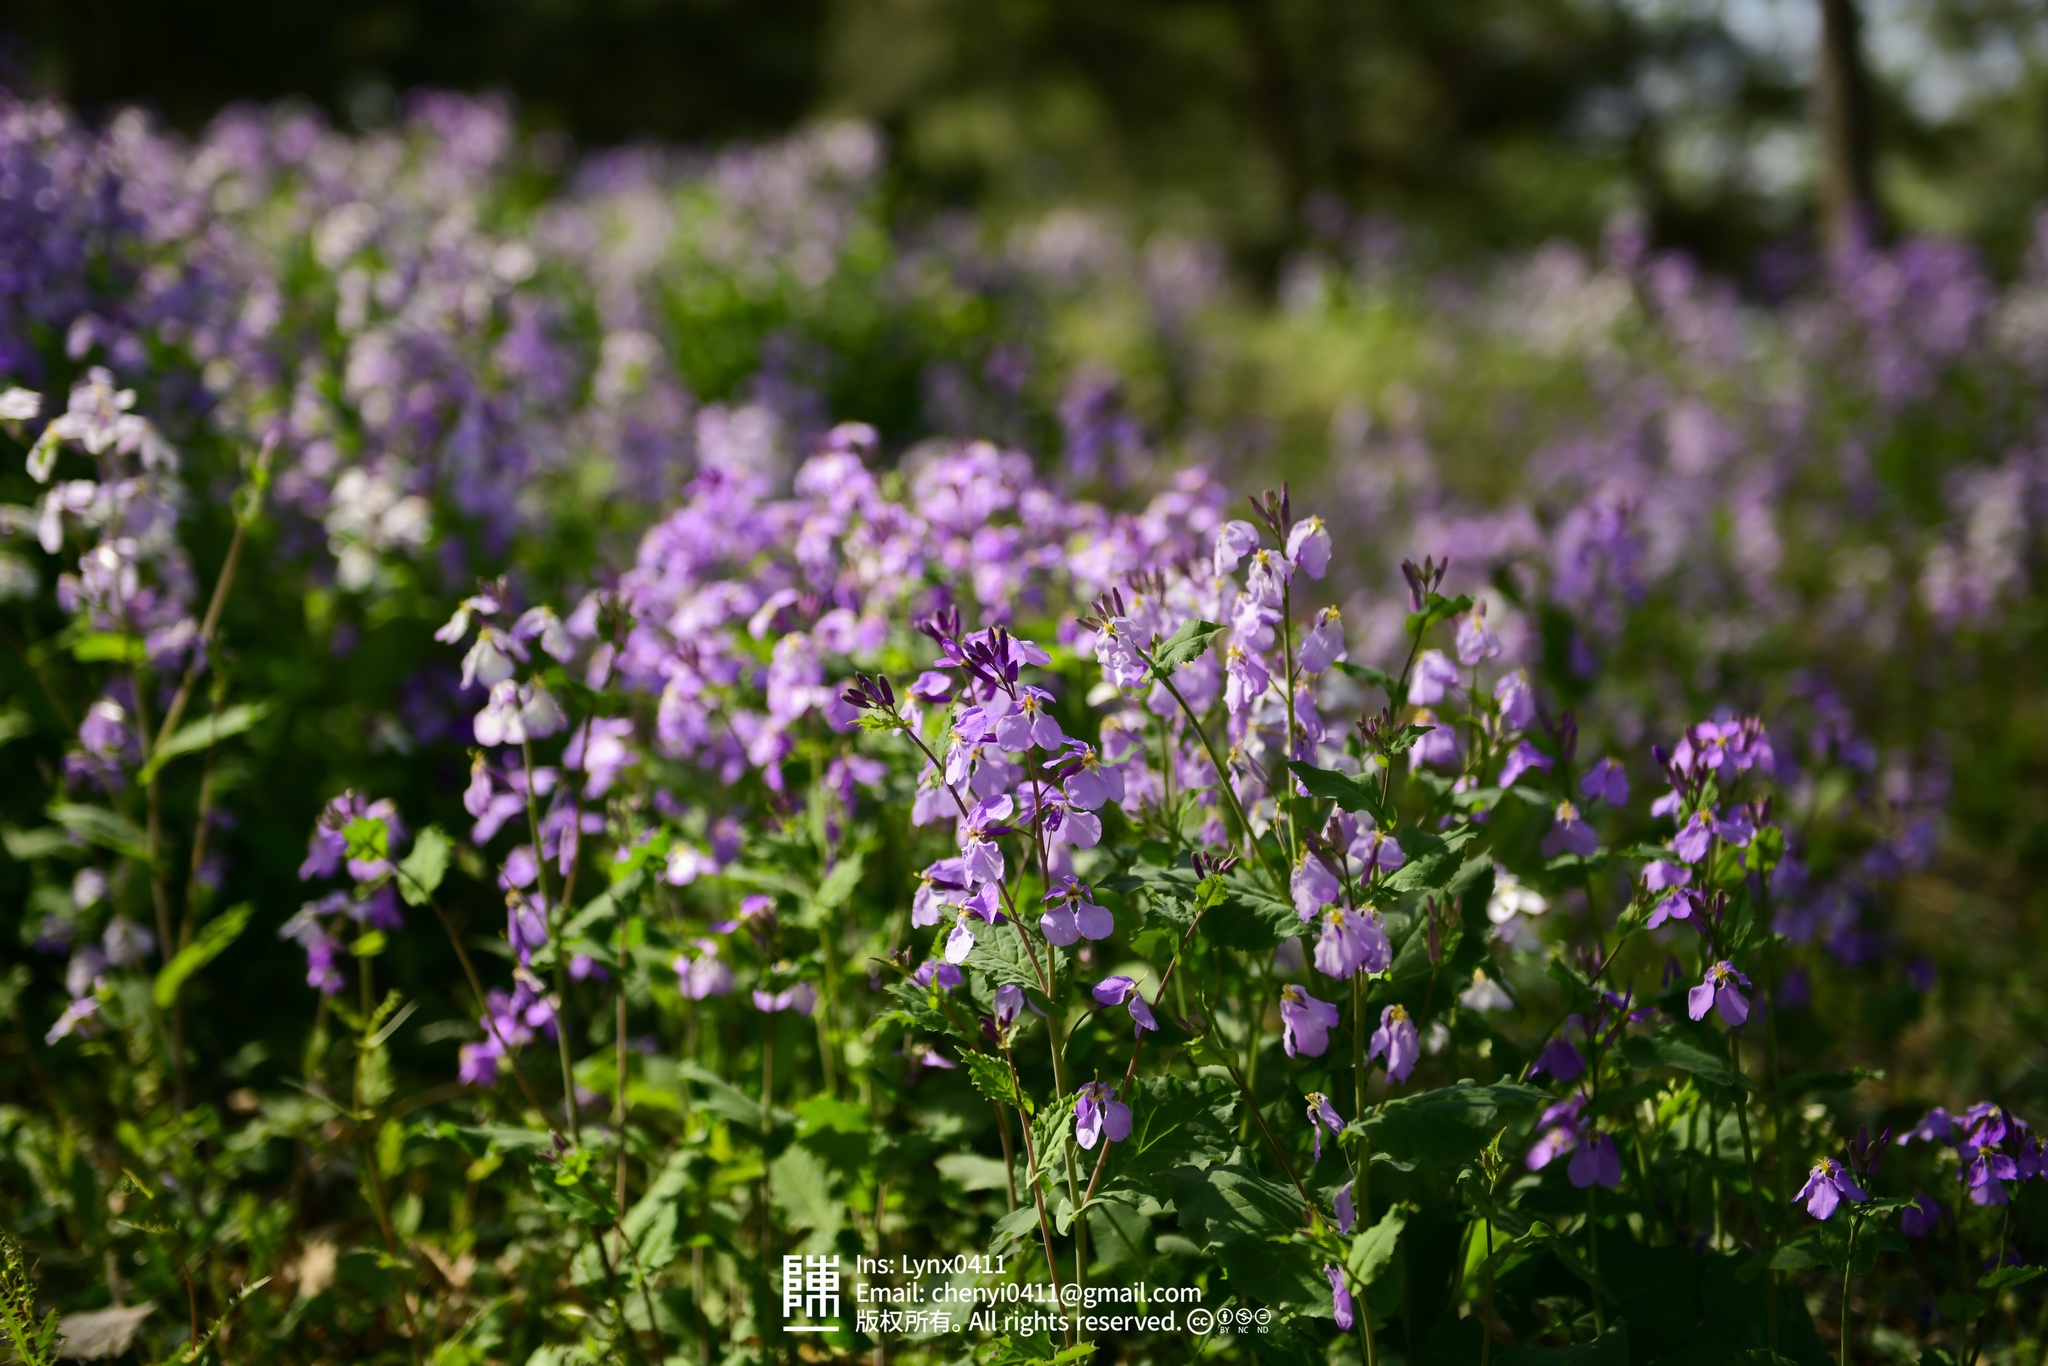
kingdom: Plantae
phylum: Tracheophyta
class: Magnoliopsida
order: Brassicales
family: Brassicaceae
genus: Orychophragmus
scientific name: Orychophragmus violaceus
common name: Mustard
